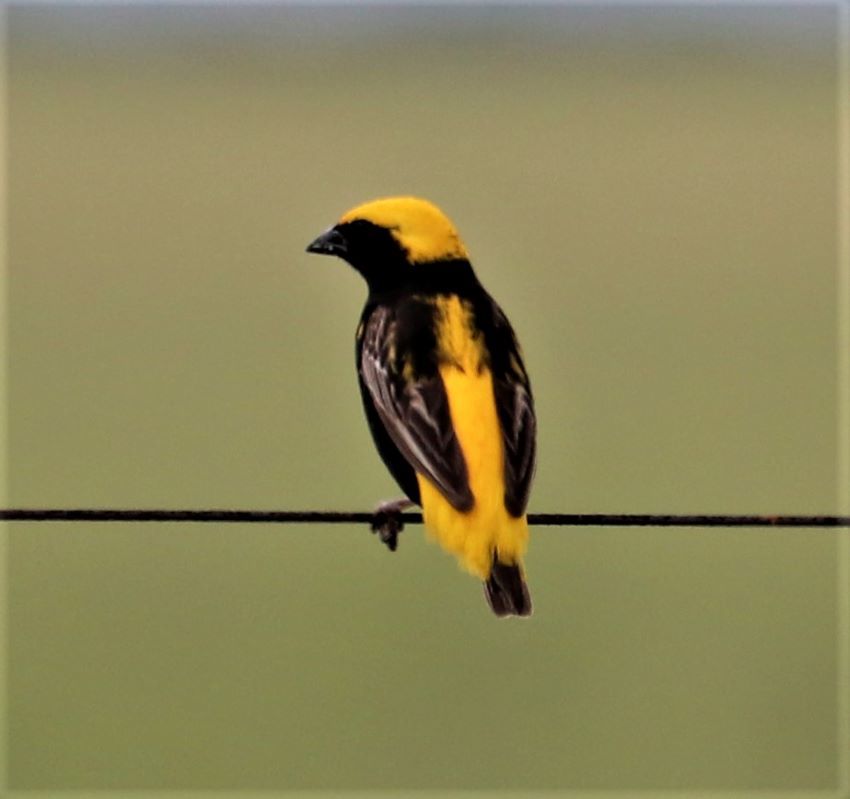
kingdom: Animalia
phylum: Chordata
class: Aves
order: Passeriformes
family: Ploceidae
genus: Euplectes
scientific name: Euplectes afer
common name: Yellow-crowned bishop
